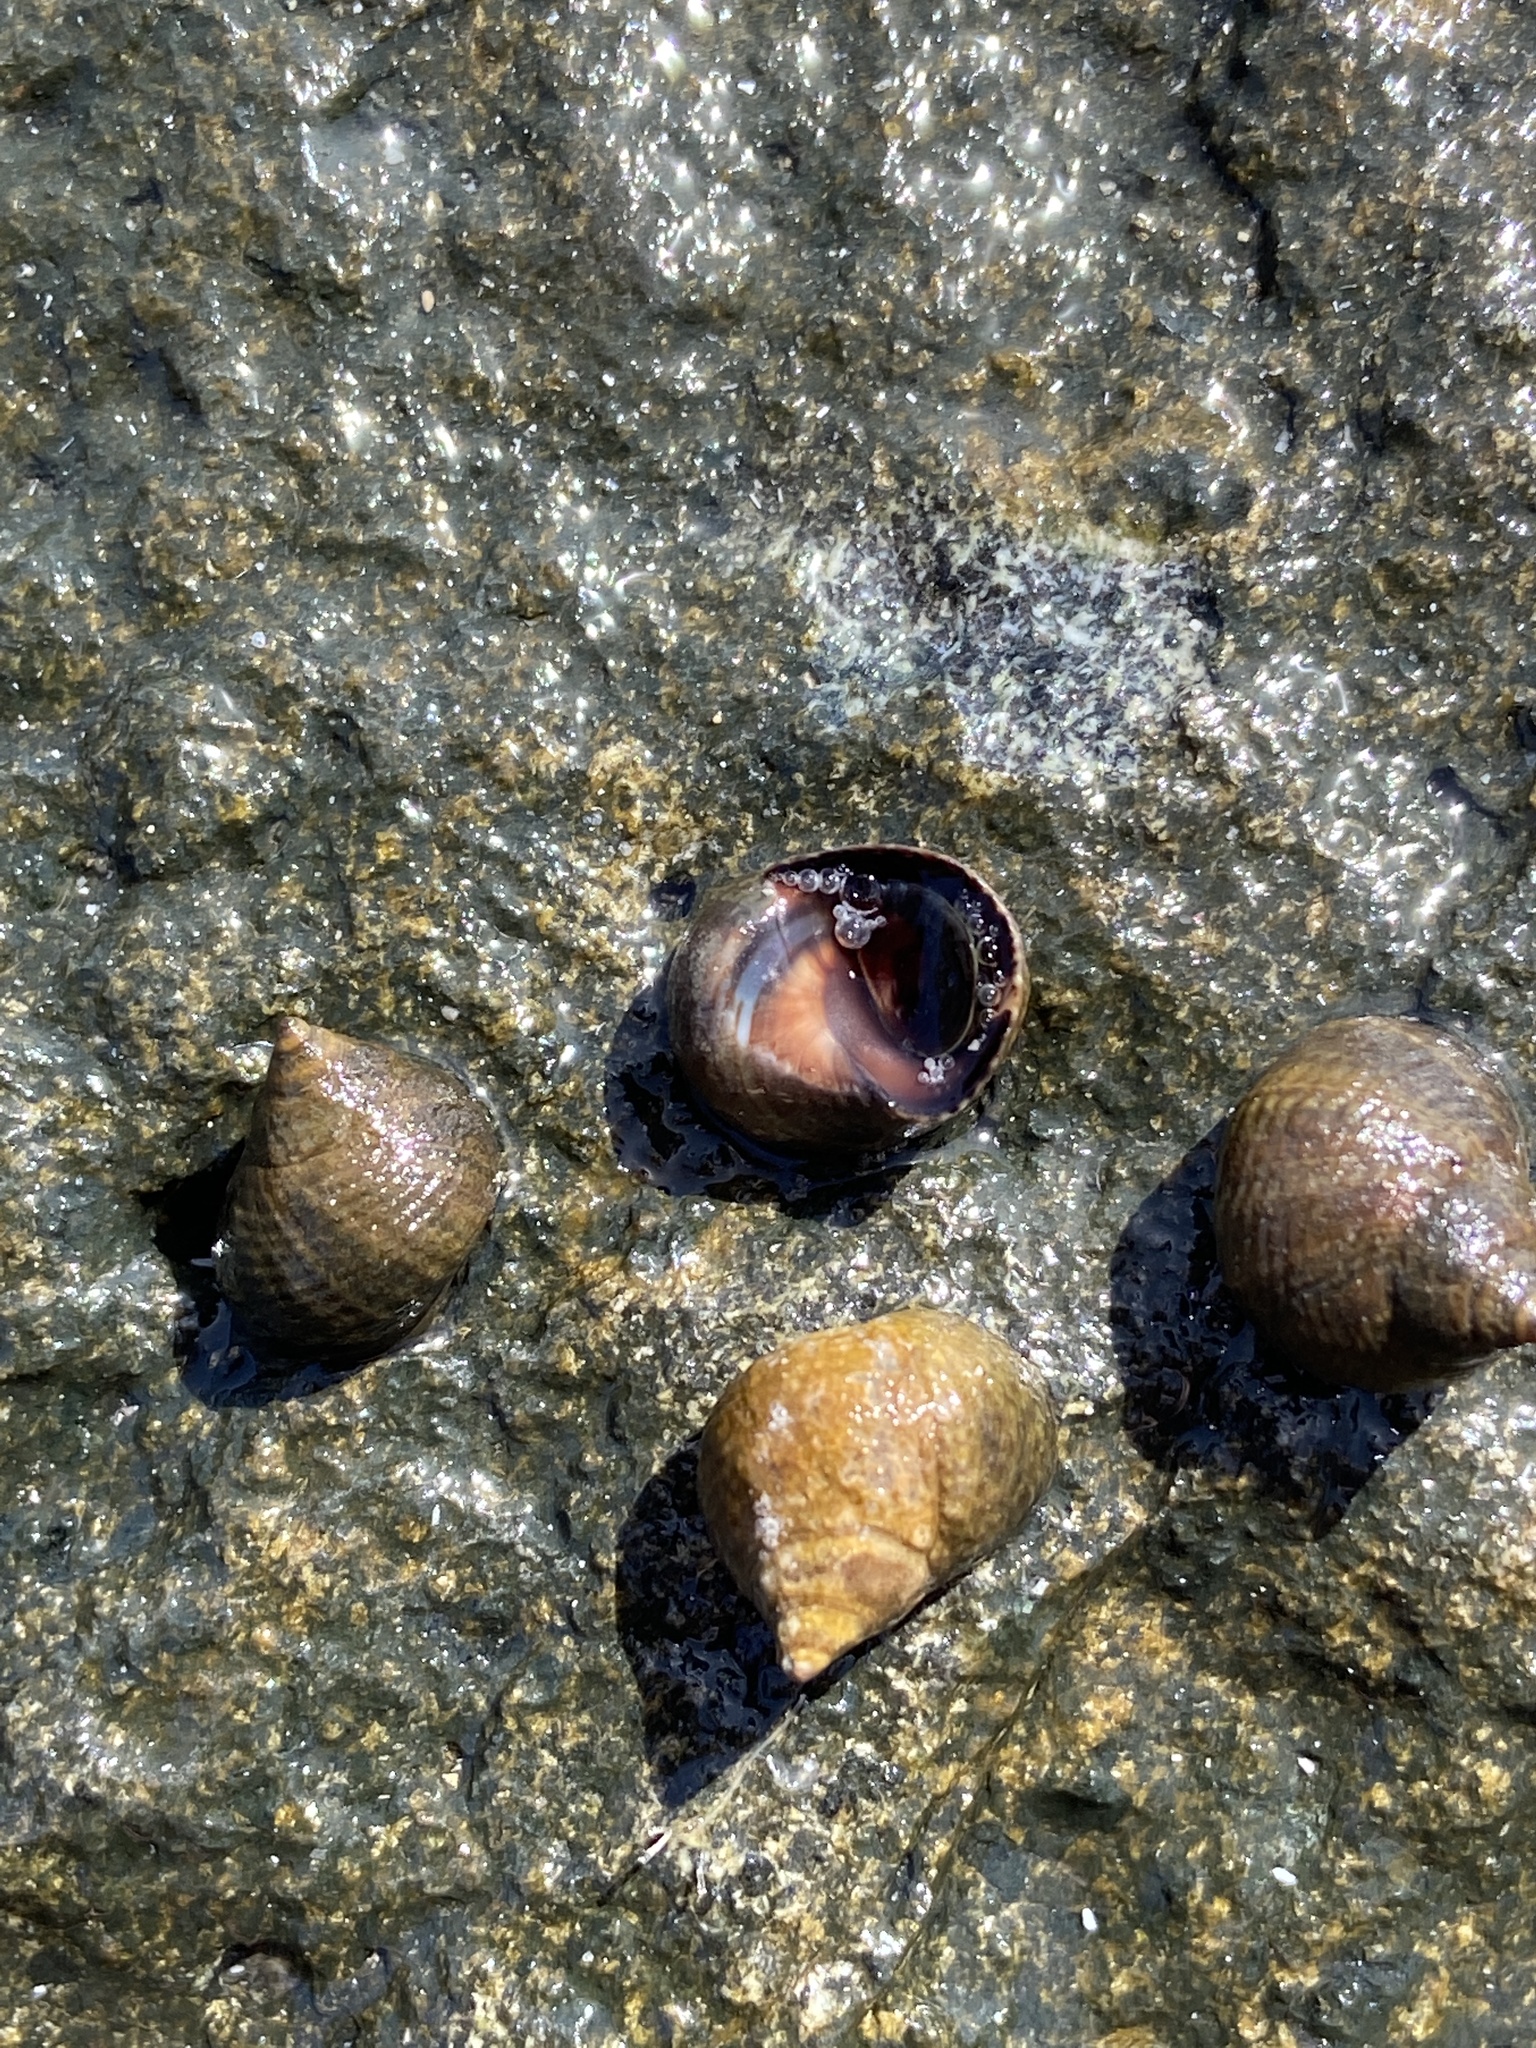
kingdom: Animalia
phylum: Mollusca
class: Gastropoda
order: Littorinimorpha
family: Littorinidae
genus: Tectarius
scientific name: Tectarius striatus
